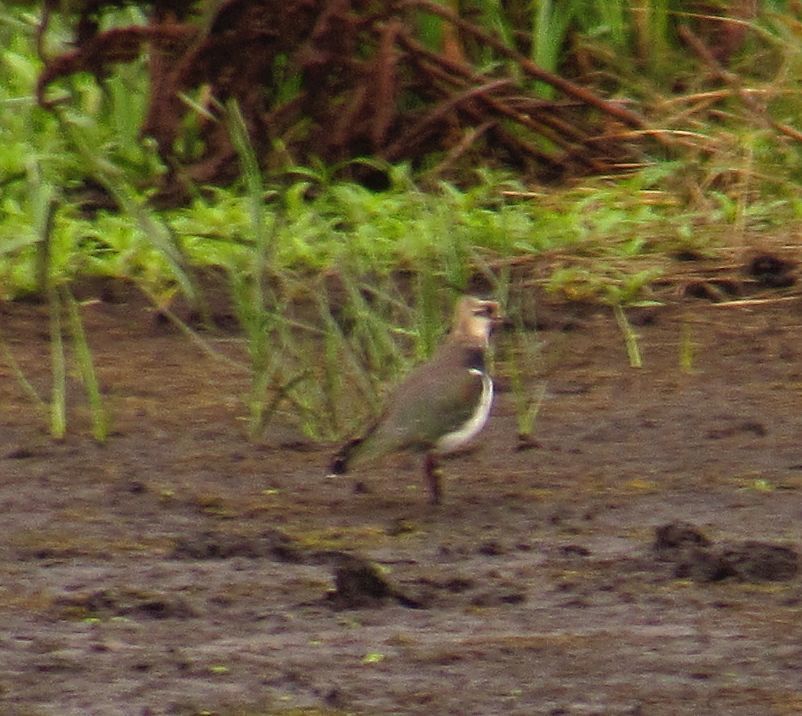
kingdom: Animalia
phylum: Chordata
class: Aves
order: Charadriiformes
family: Charadriidae
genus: Vanellus
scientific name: Vanellus vanellus
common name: Northern lapwing
